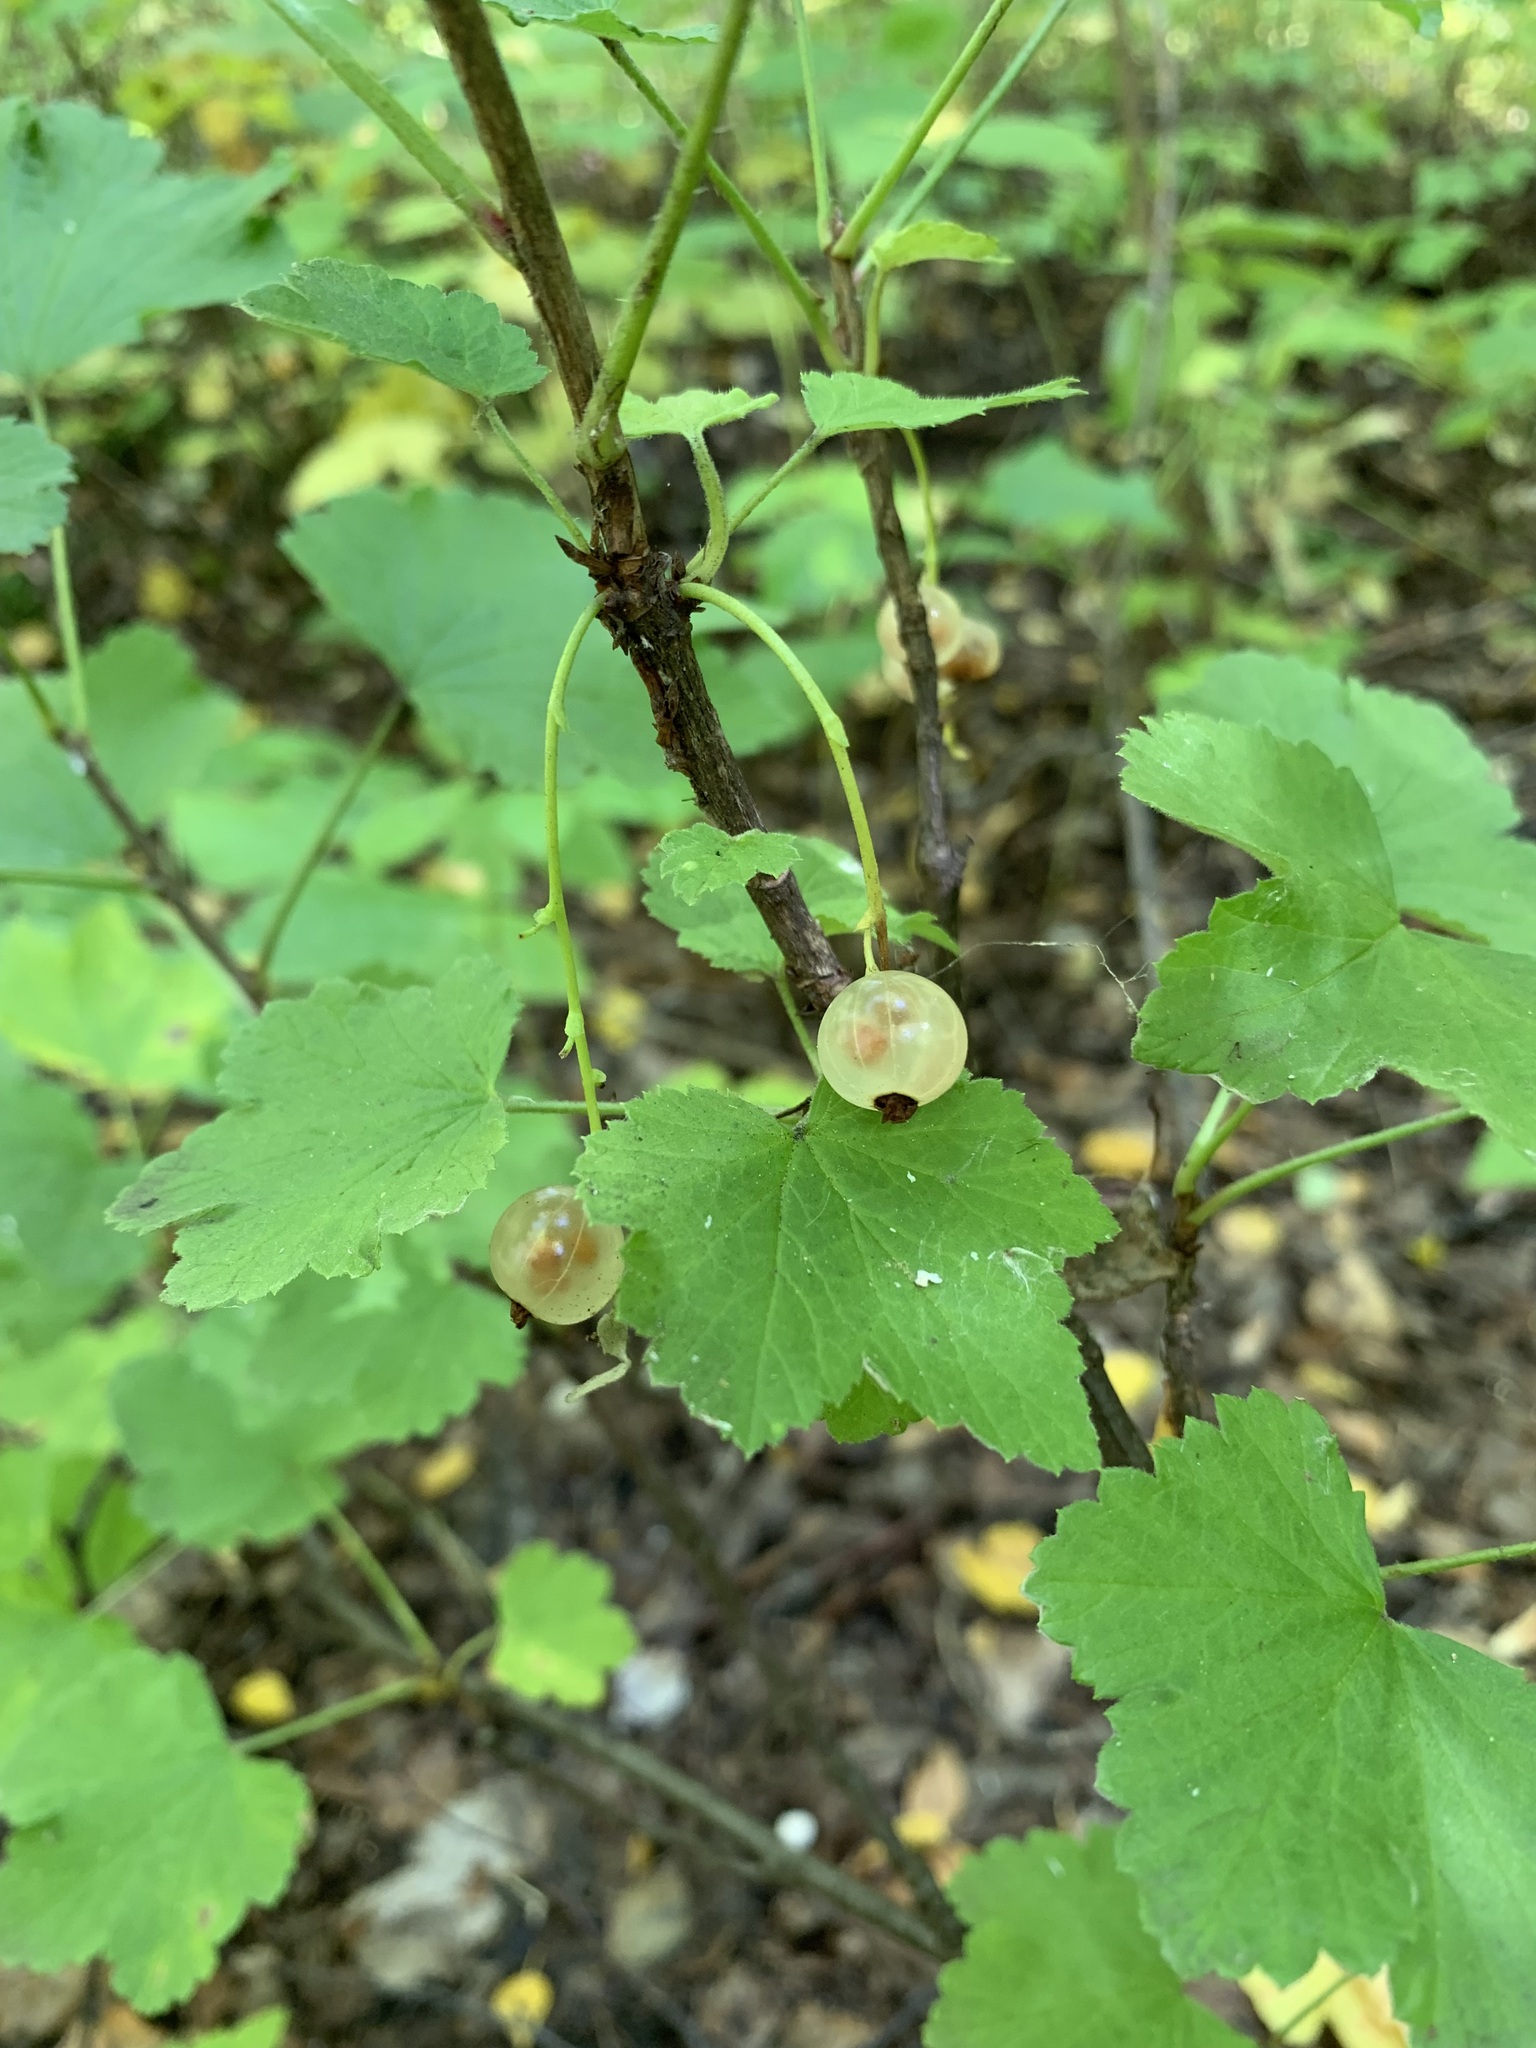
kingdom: Plantae
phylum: Tracheophyta
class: Magnoliopsida
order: Saxifragales
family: Grossulariaceae
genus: Ribes
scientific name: Ribes rubrum
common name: Red currant
